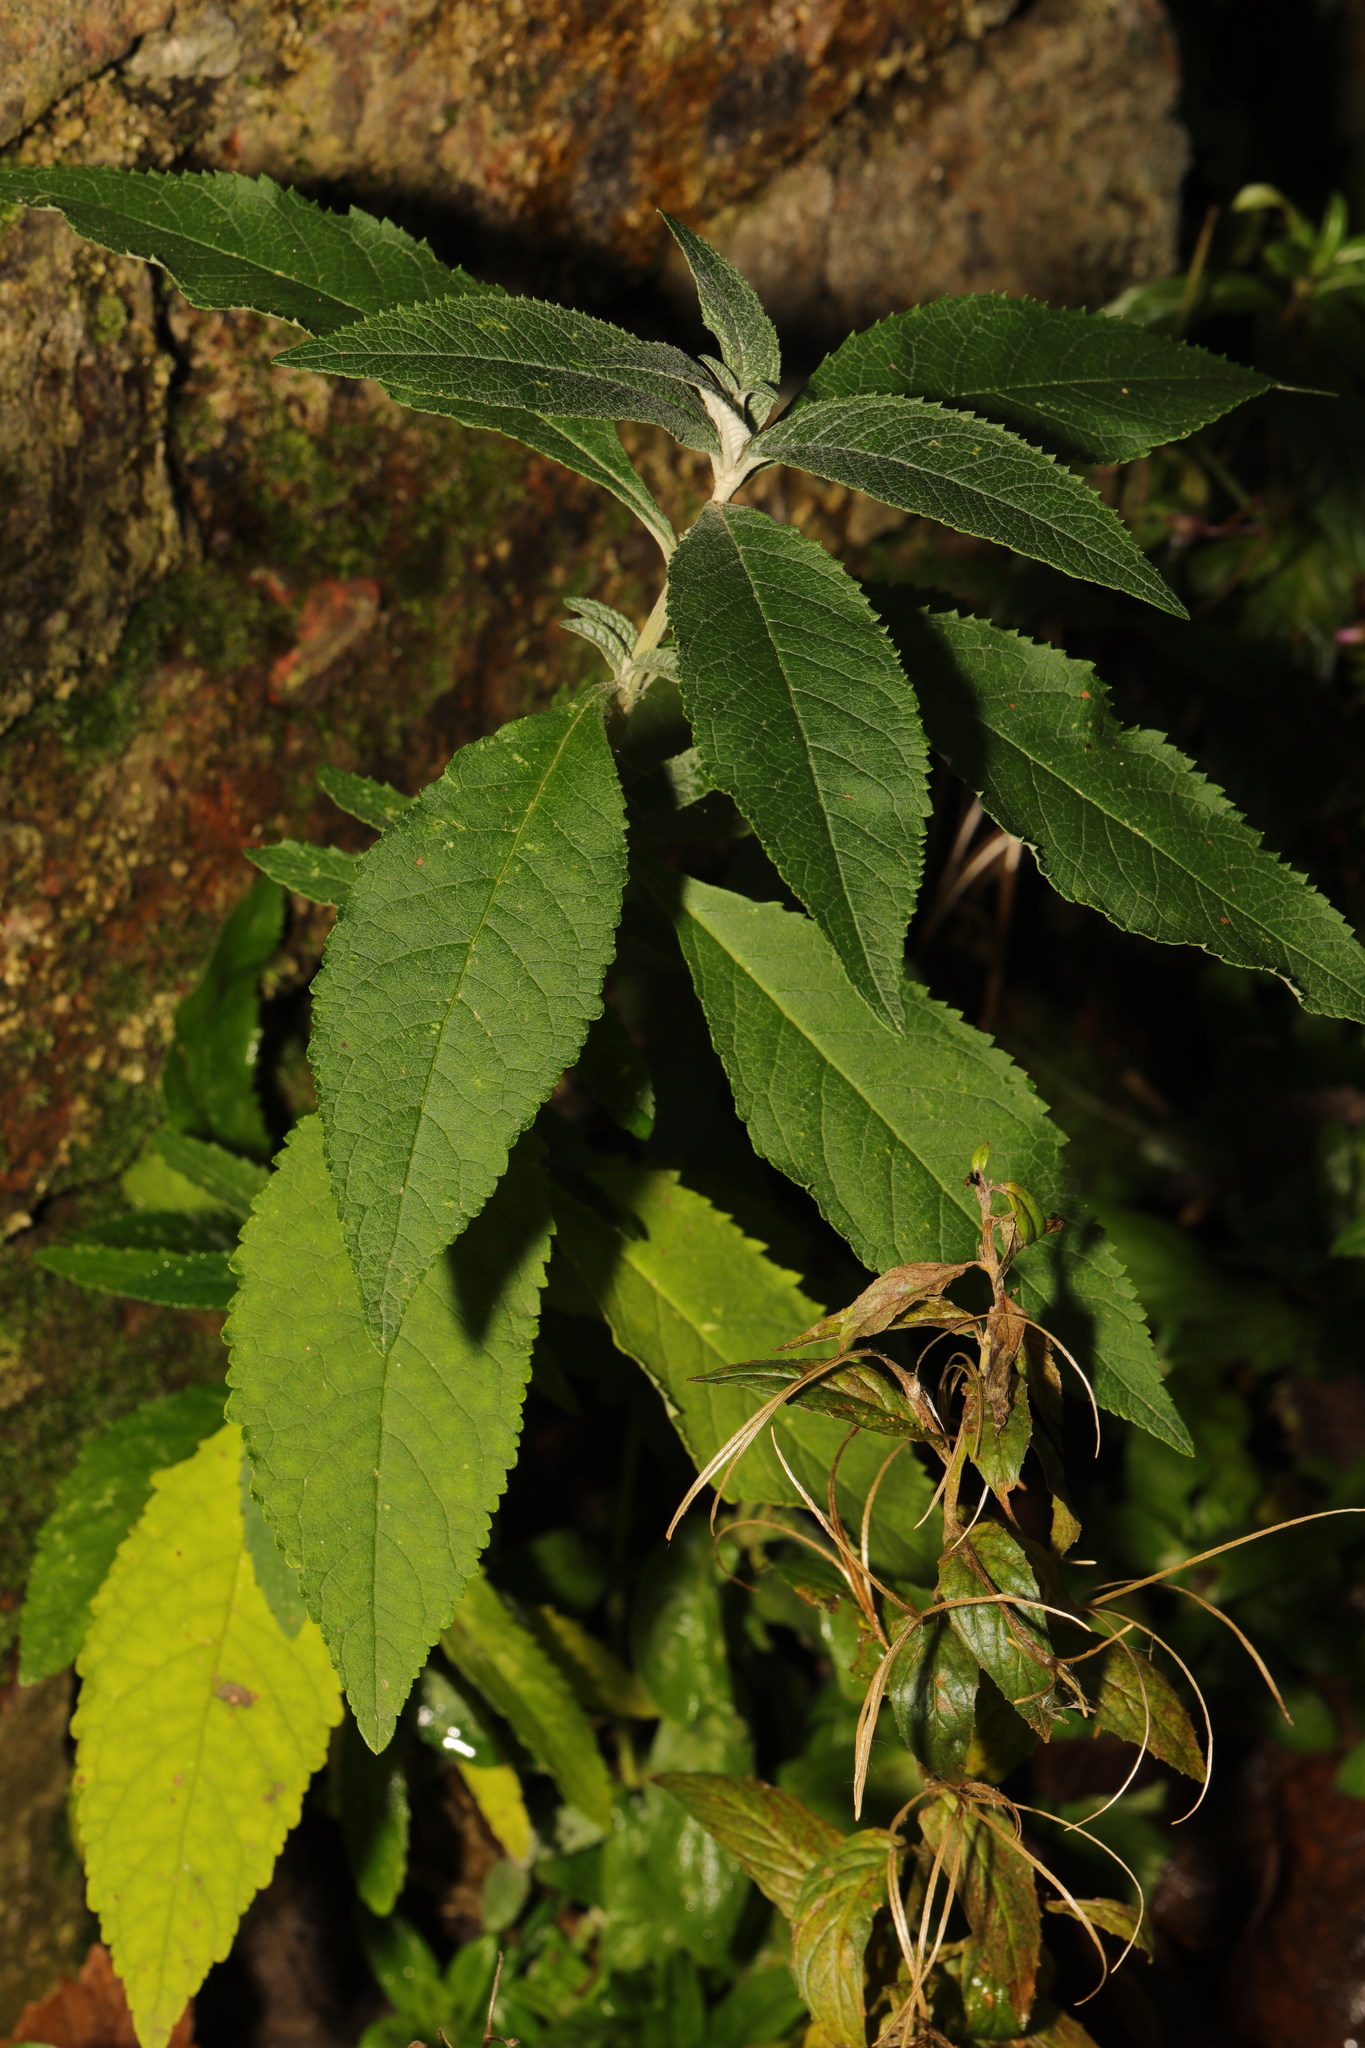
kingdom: Plantae
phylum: Tracheophyta
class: Magnoliopsida
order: Lamiales
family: Scrophulariaceae
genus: Buddleja
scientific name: Buddleja davidii
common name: Butterfly-bush
